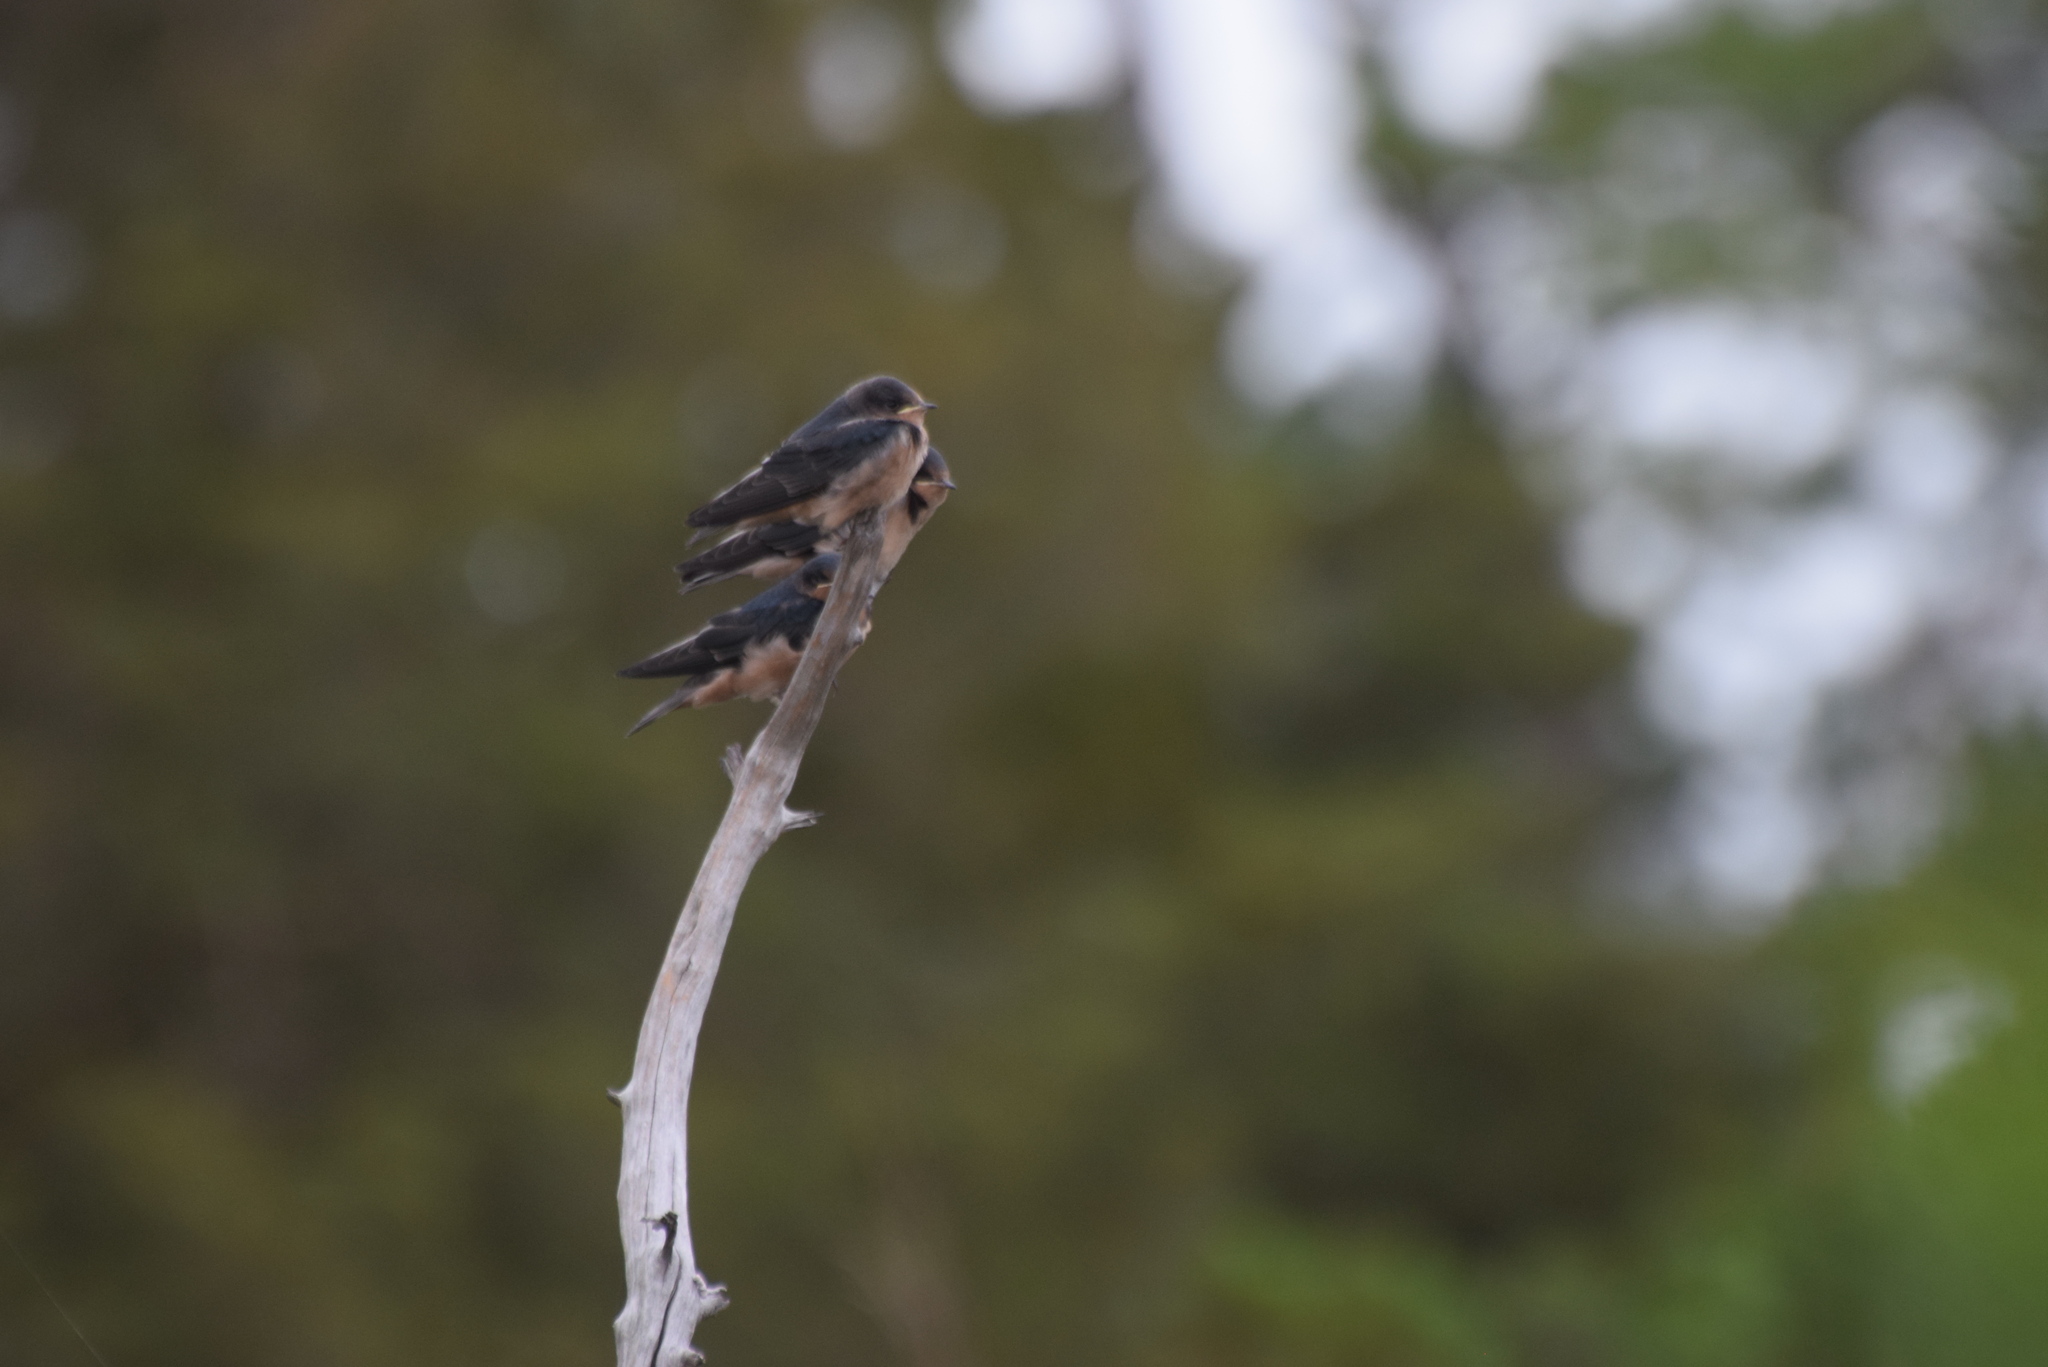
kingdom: Animalia
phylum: Chordata
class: Aves
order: Passeriformes
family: Hirundinidae
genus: Hirundo
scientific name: Hirundo rustica
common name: Barn swallow
